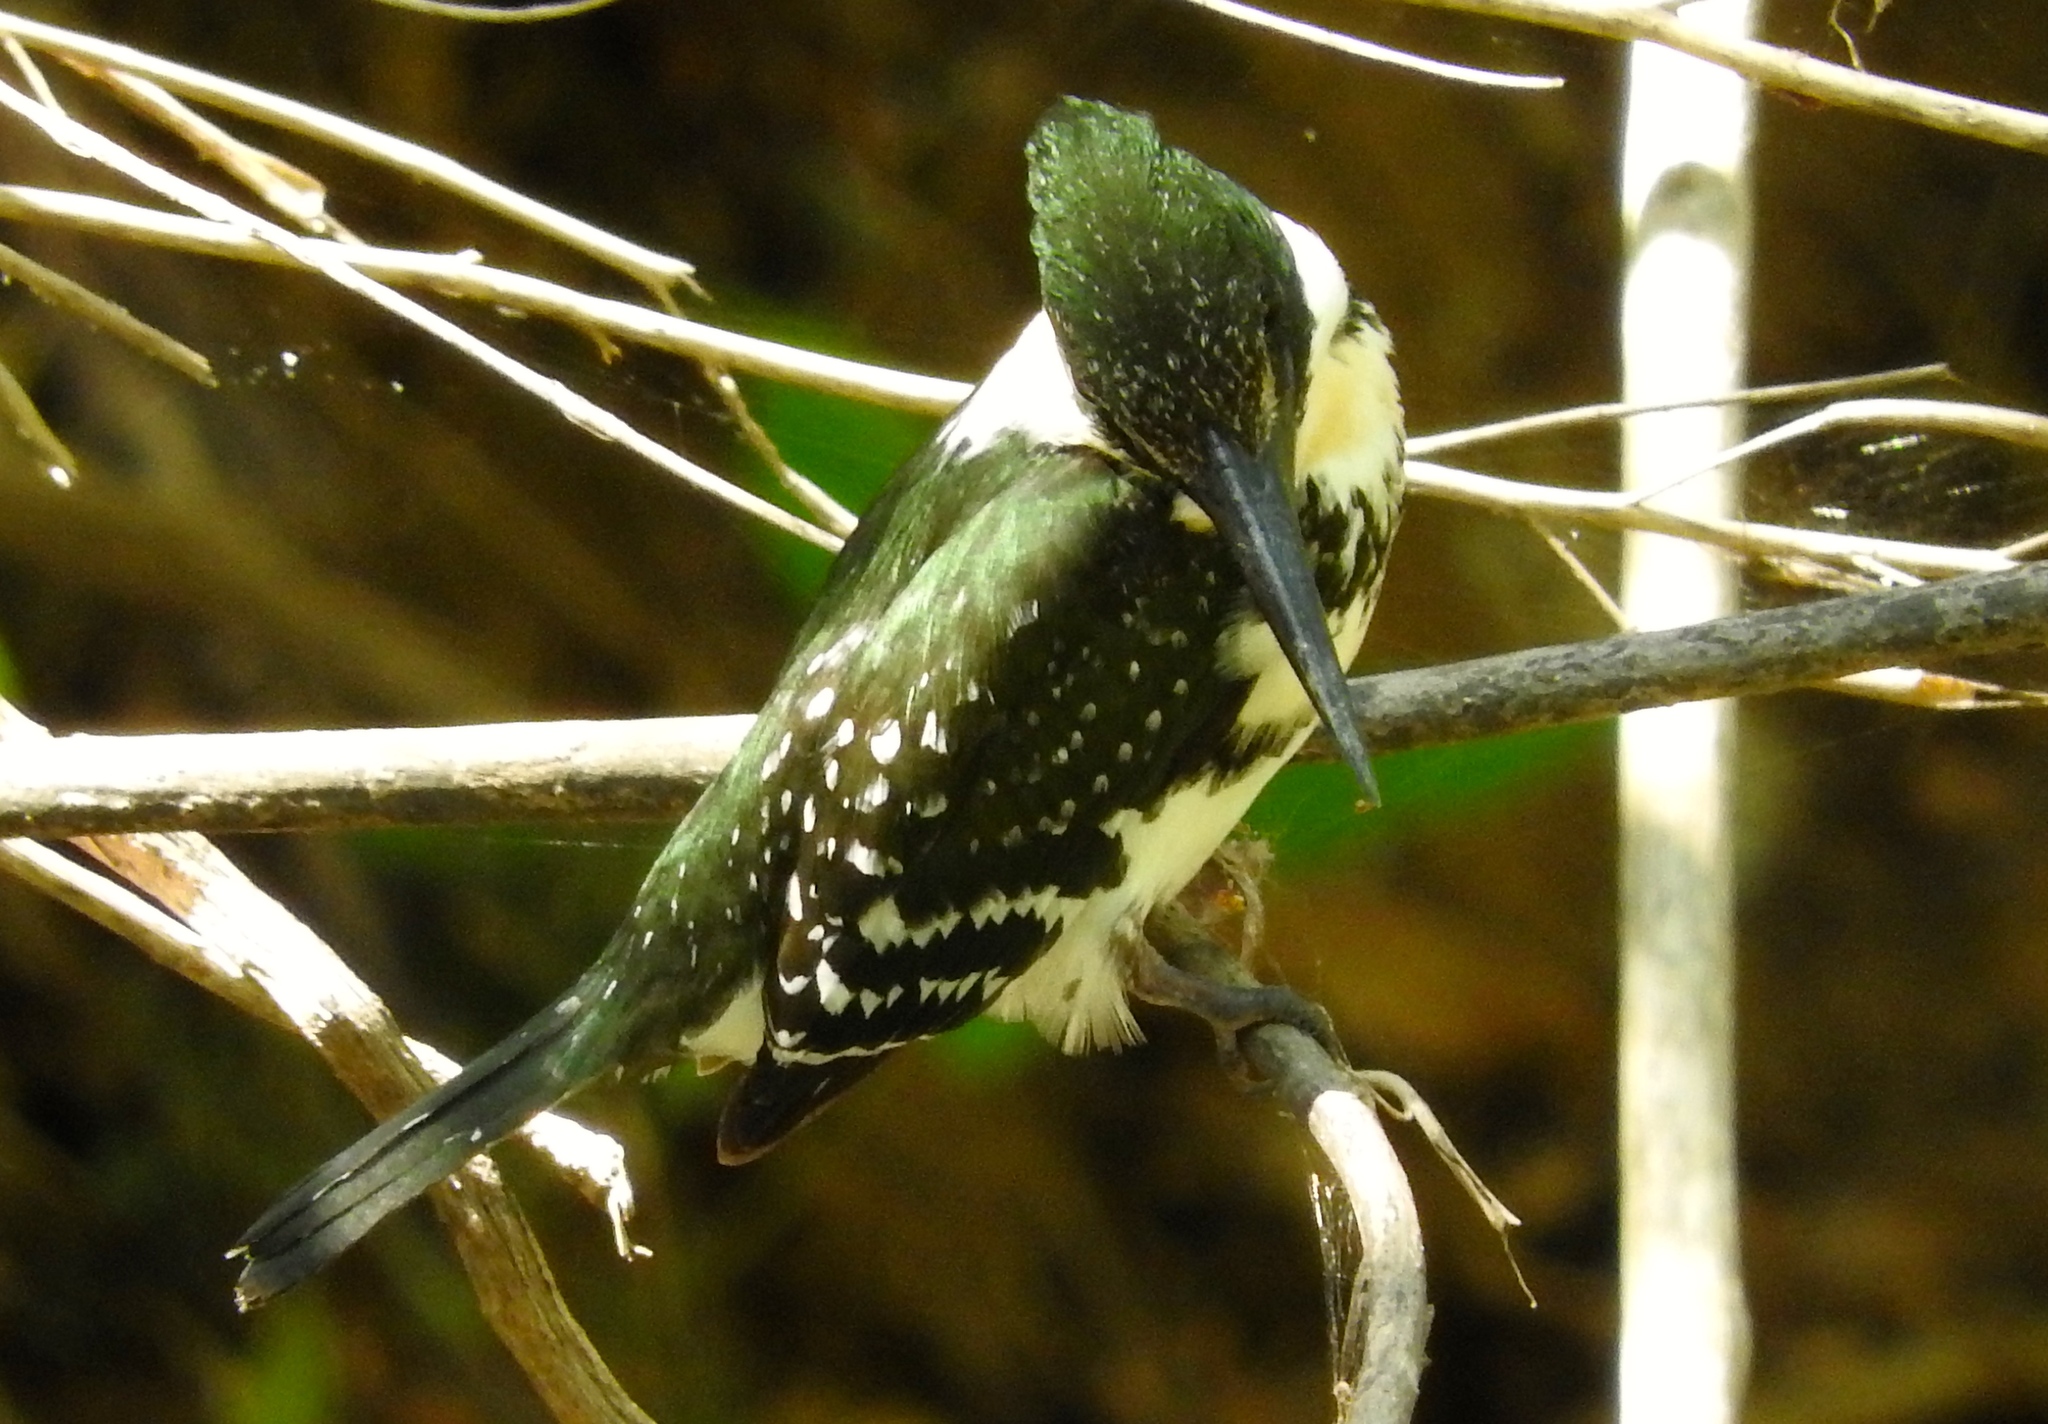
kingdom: Animalia
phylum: Chordata
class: Aves
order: Coraciiformes
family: Alcedinidae
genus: Chloroceryle
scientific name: Chloroceryle americana
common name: Green kingfisher
